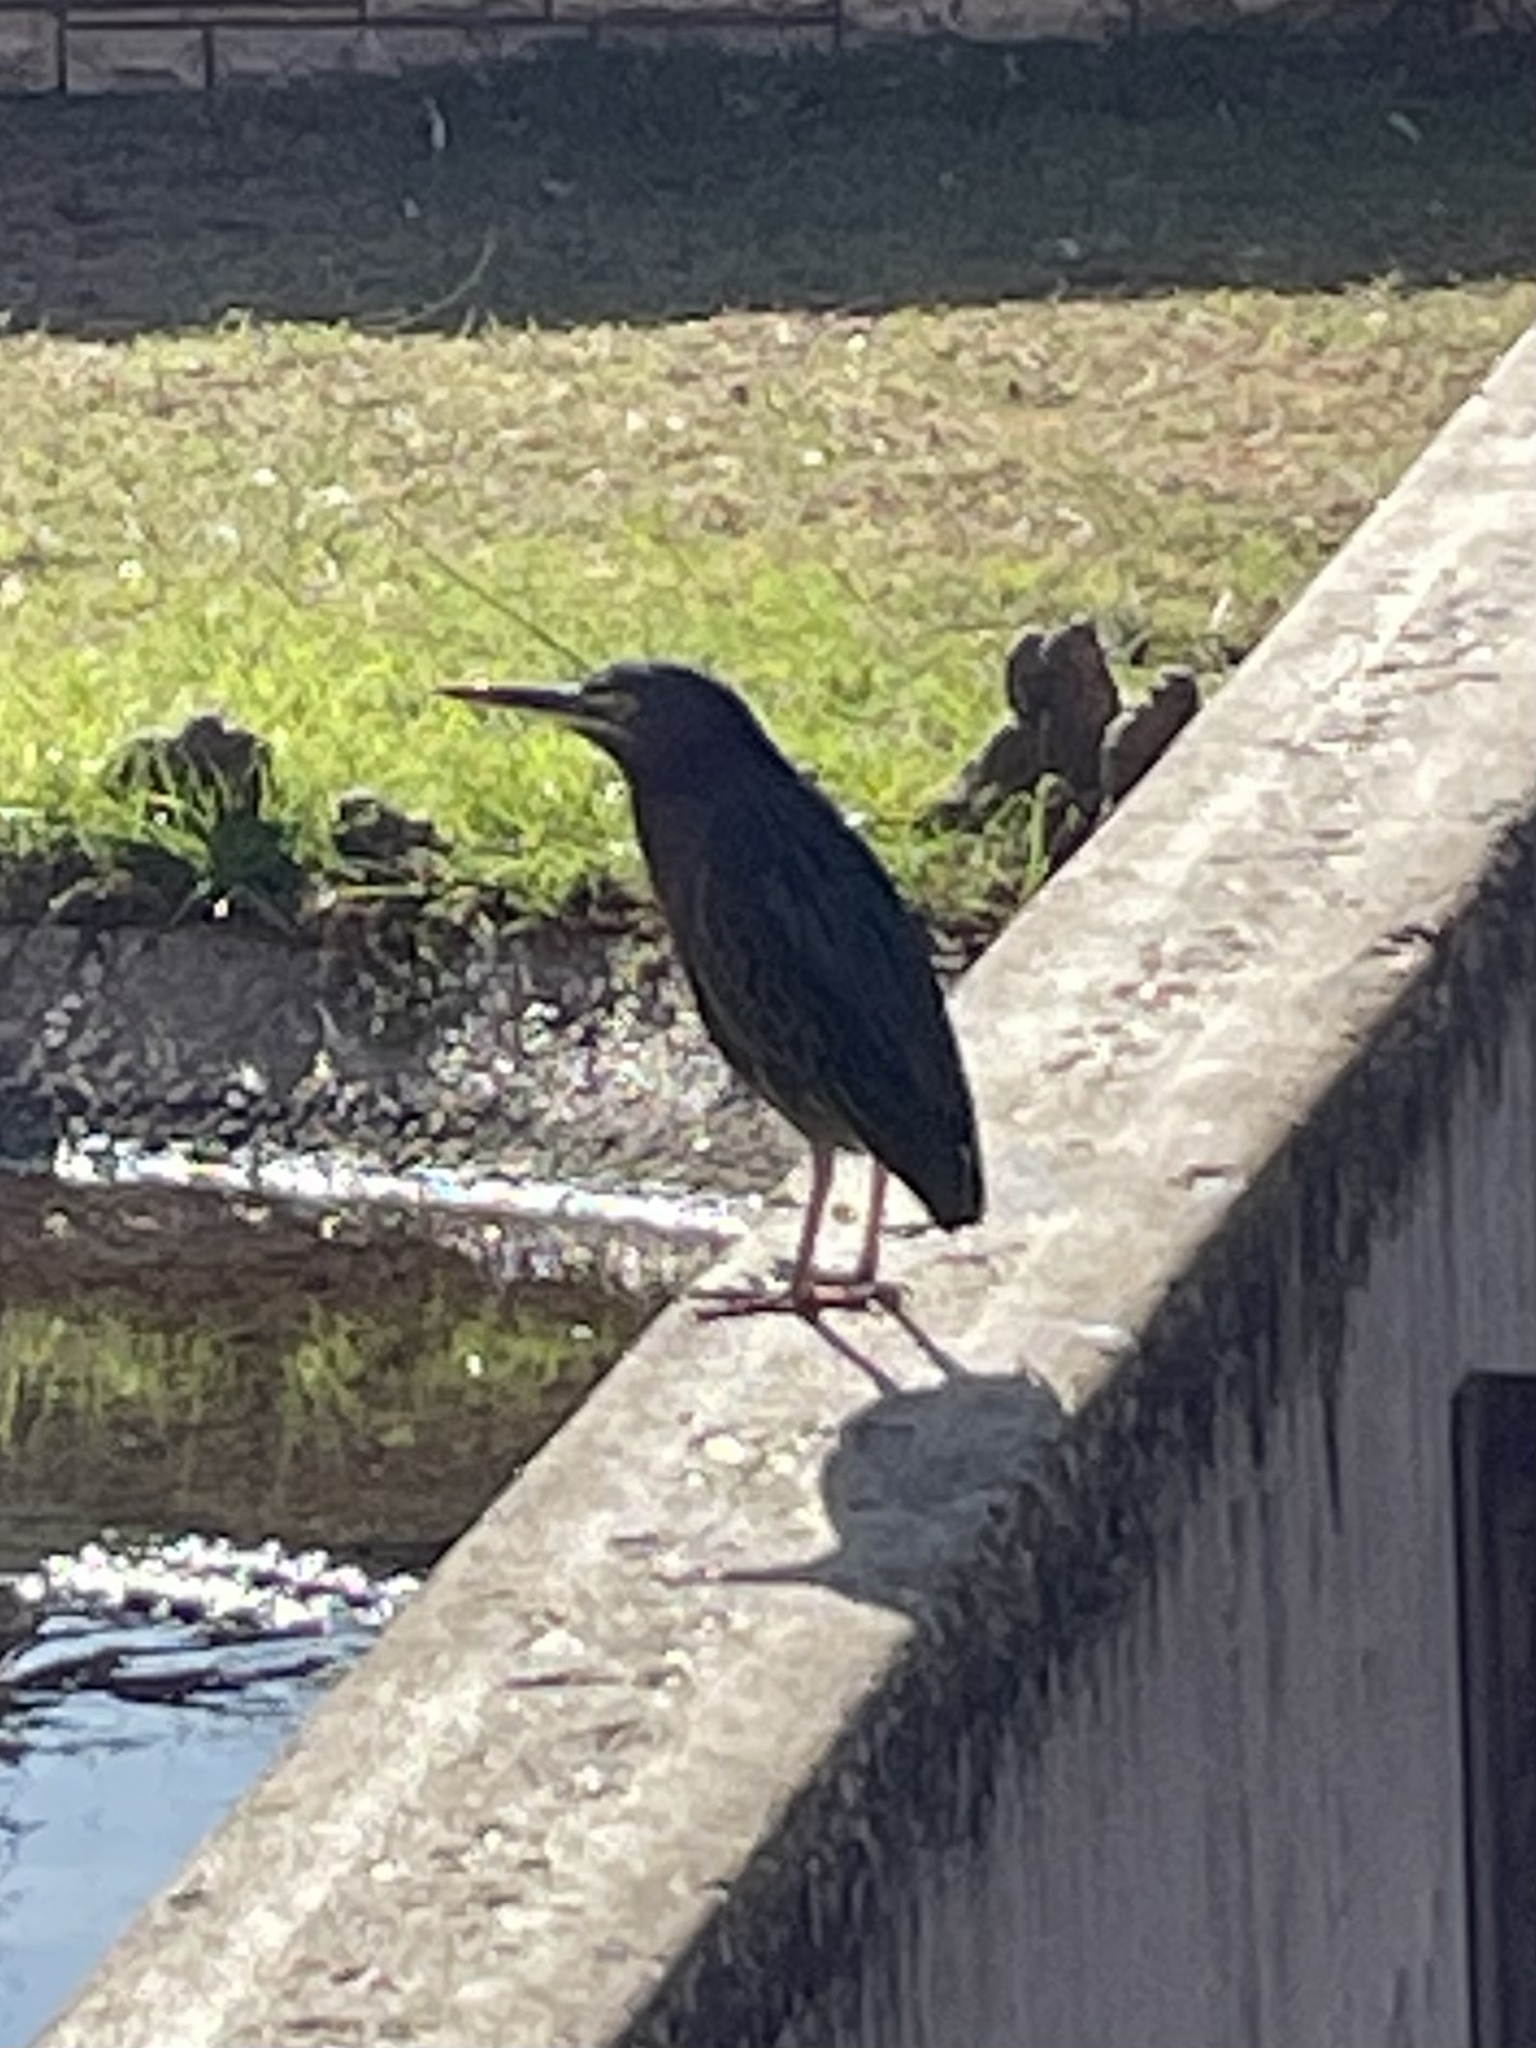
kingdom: Animalia
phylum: Chordata
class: Aves
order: Pelecaniformes
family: Ardeidae
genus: Butorides
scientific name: Butorides virescens
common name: Green heron
